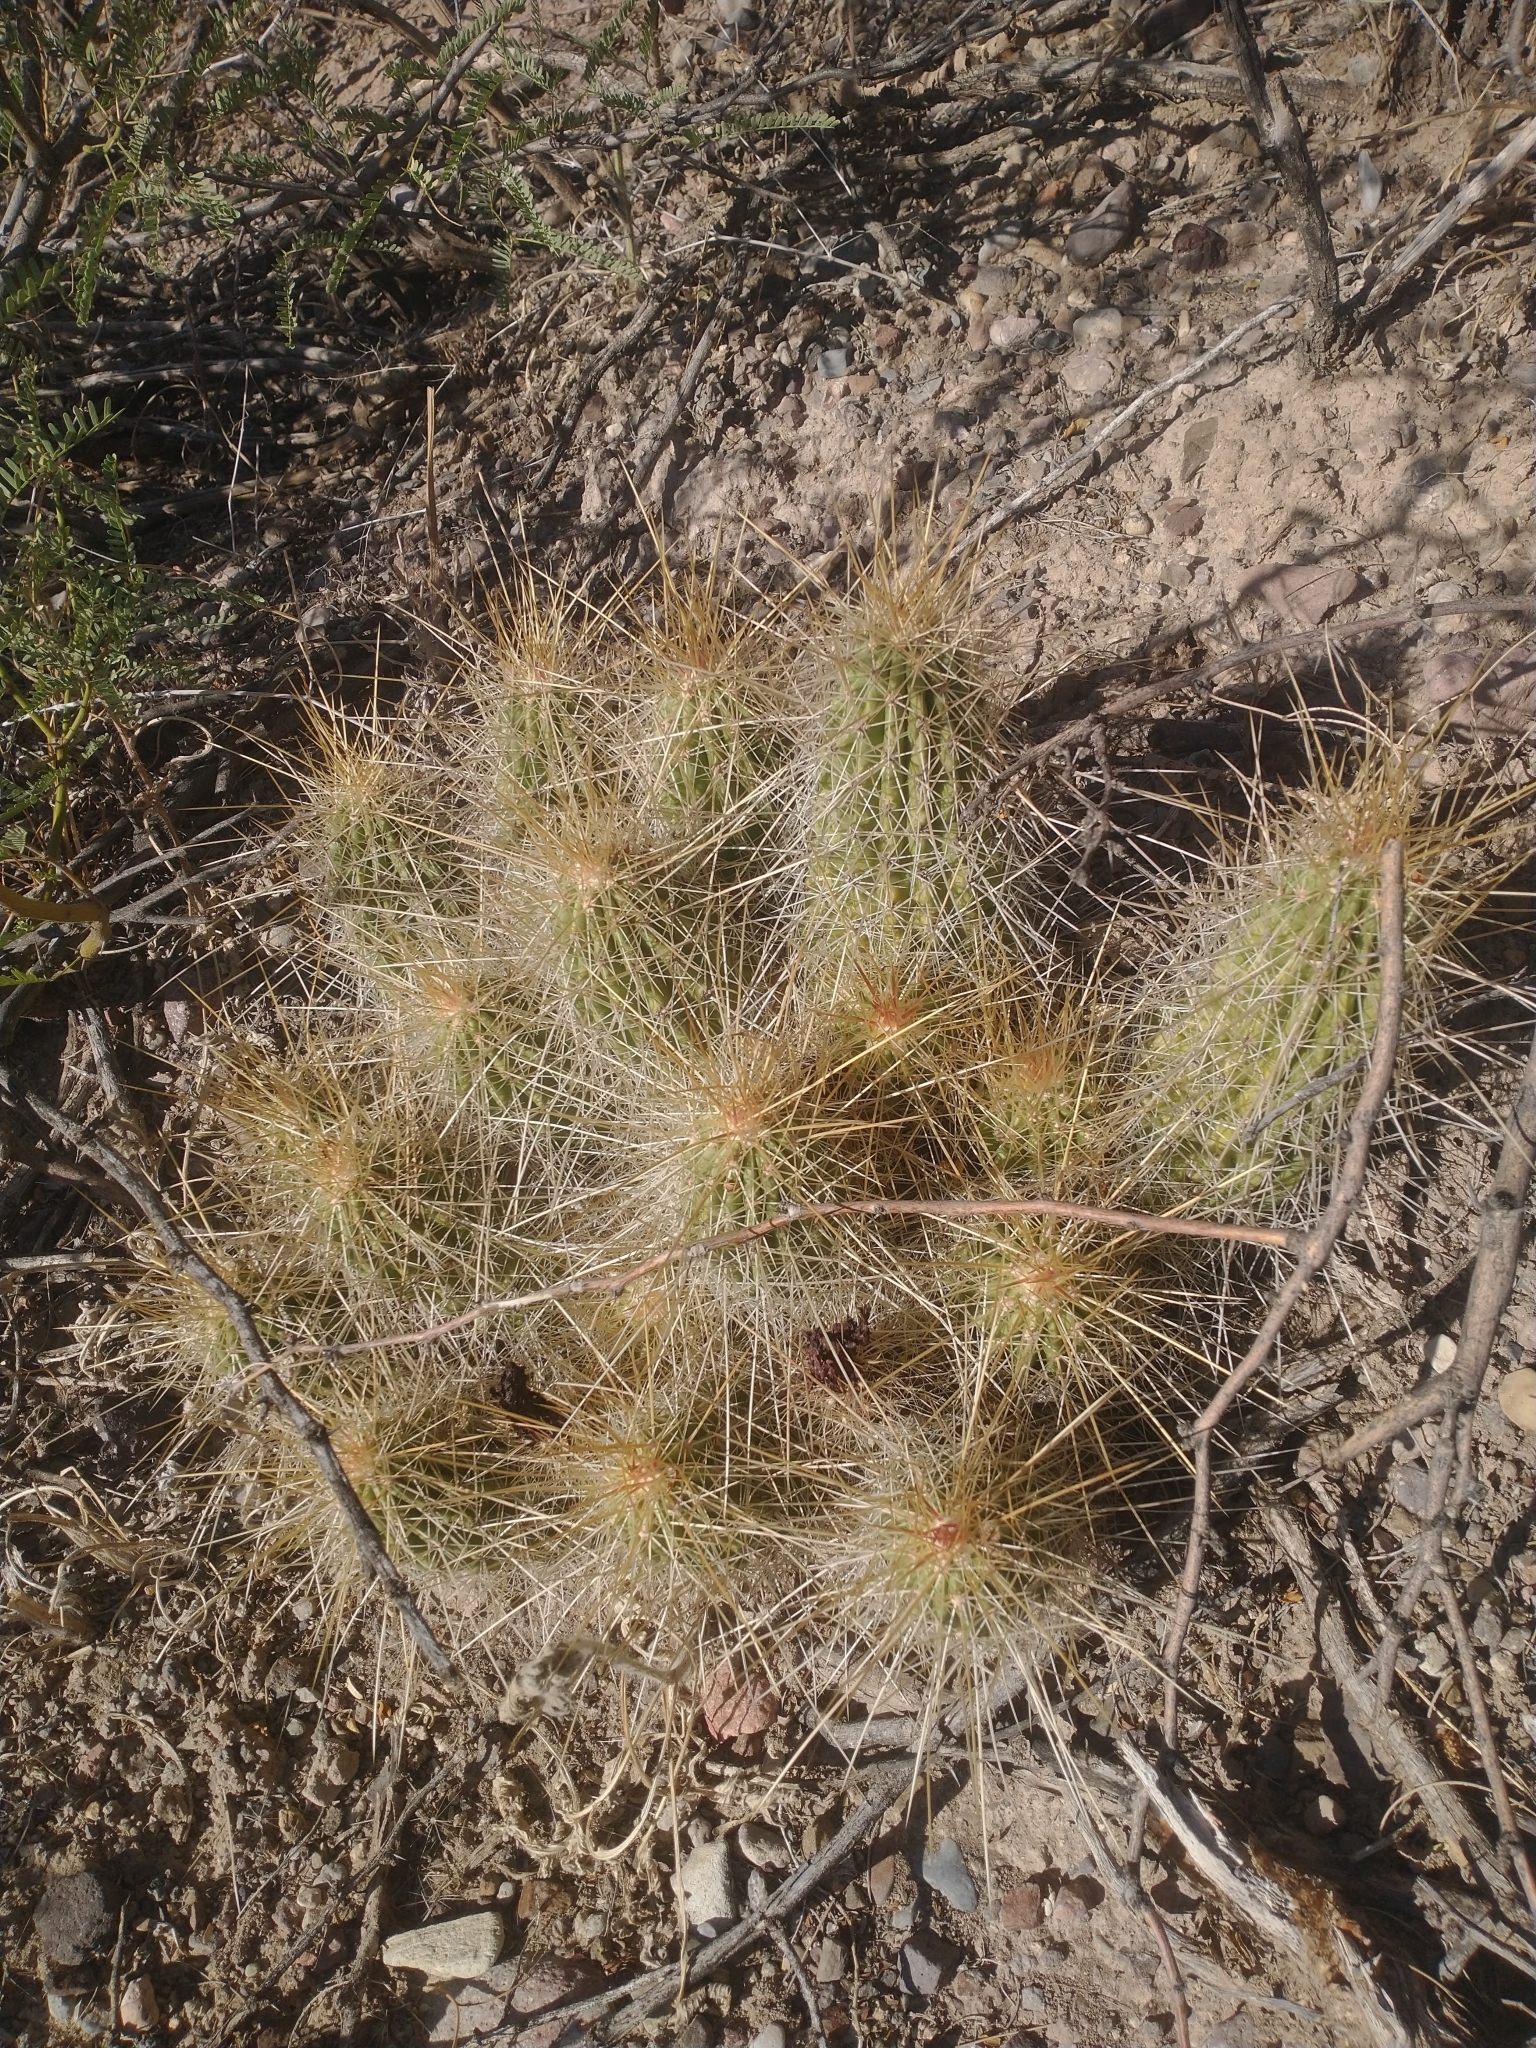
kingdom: Plantae
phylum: Tracheophyta
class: Magnoliopsida
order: Caryophyllales
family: Cactaceae
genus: Echinocereus
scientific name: Echinocereus stramineus
